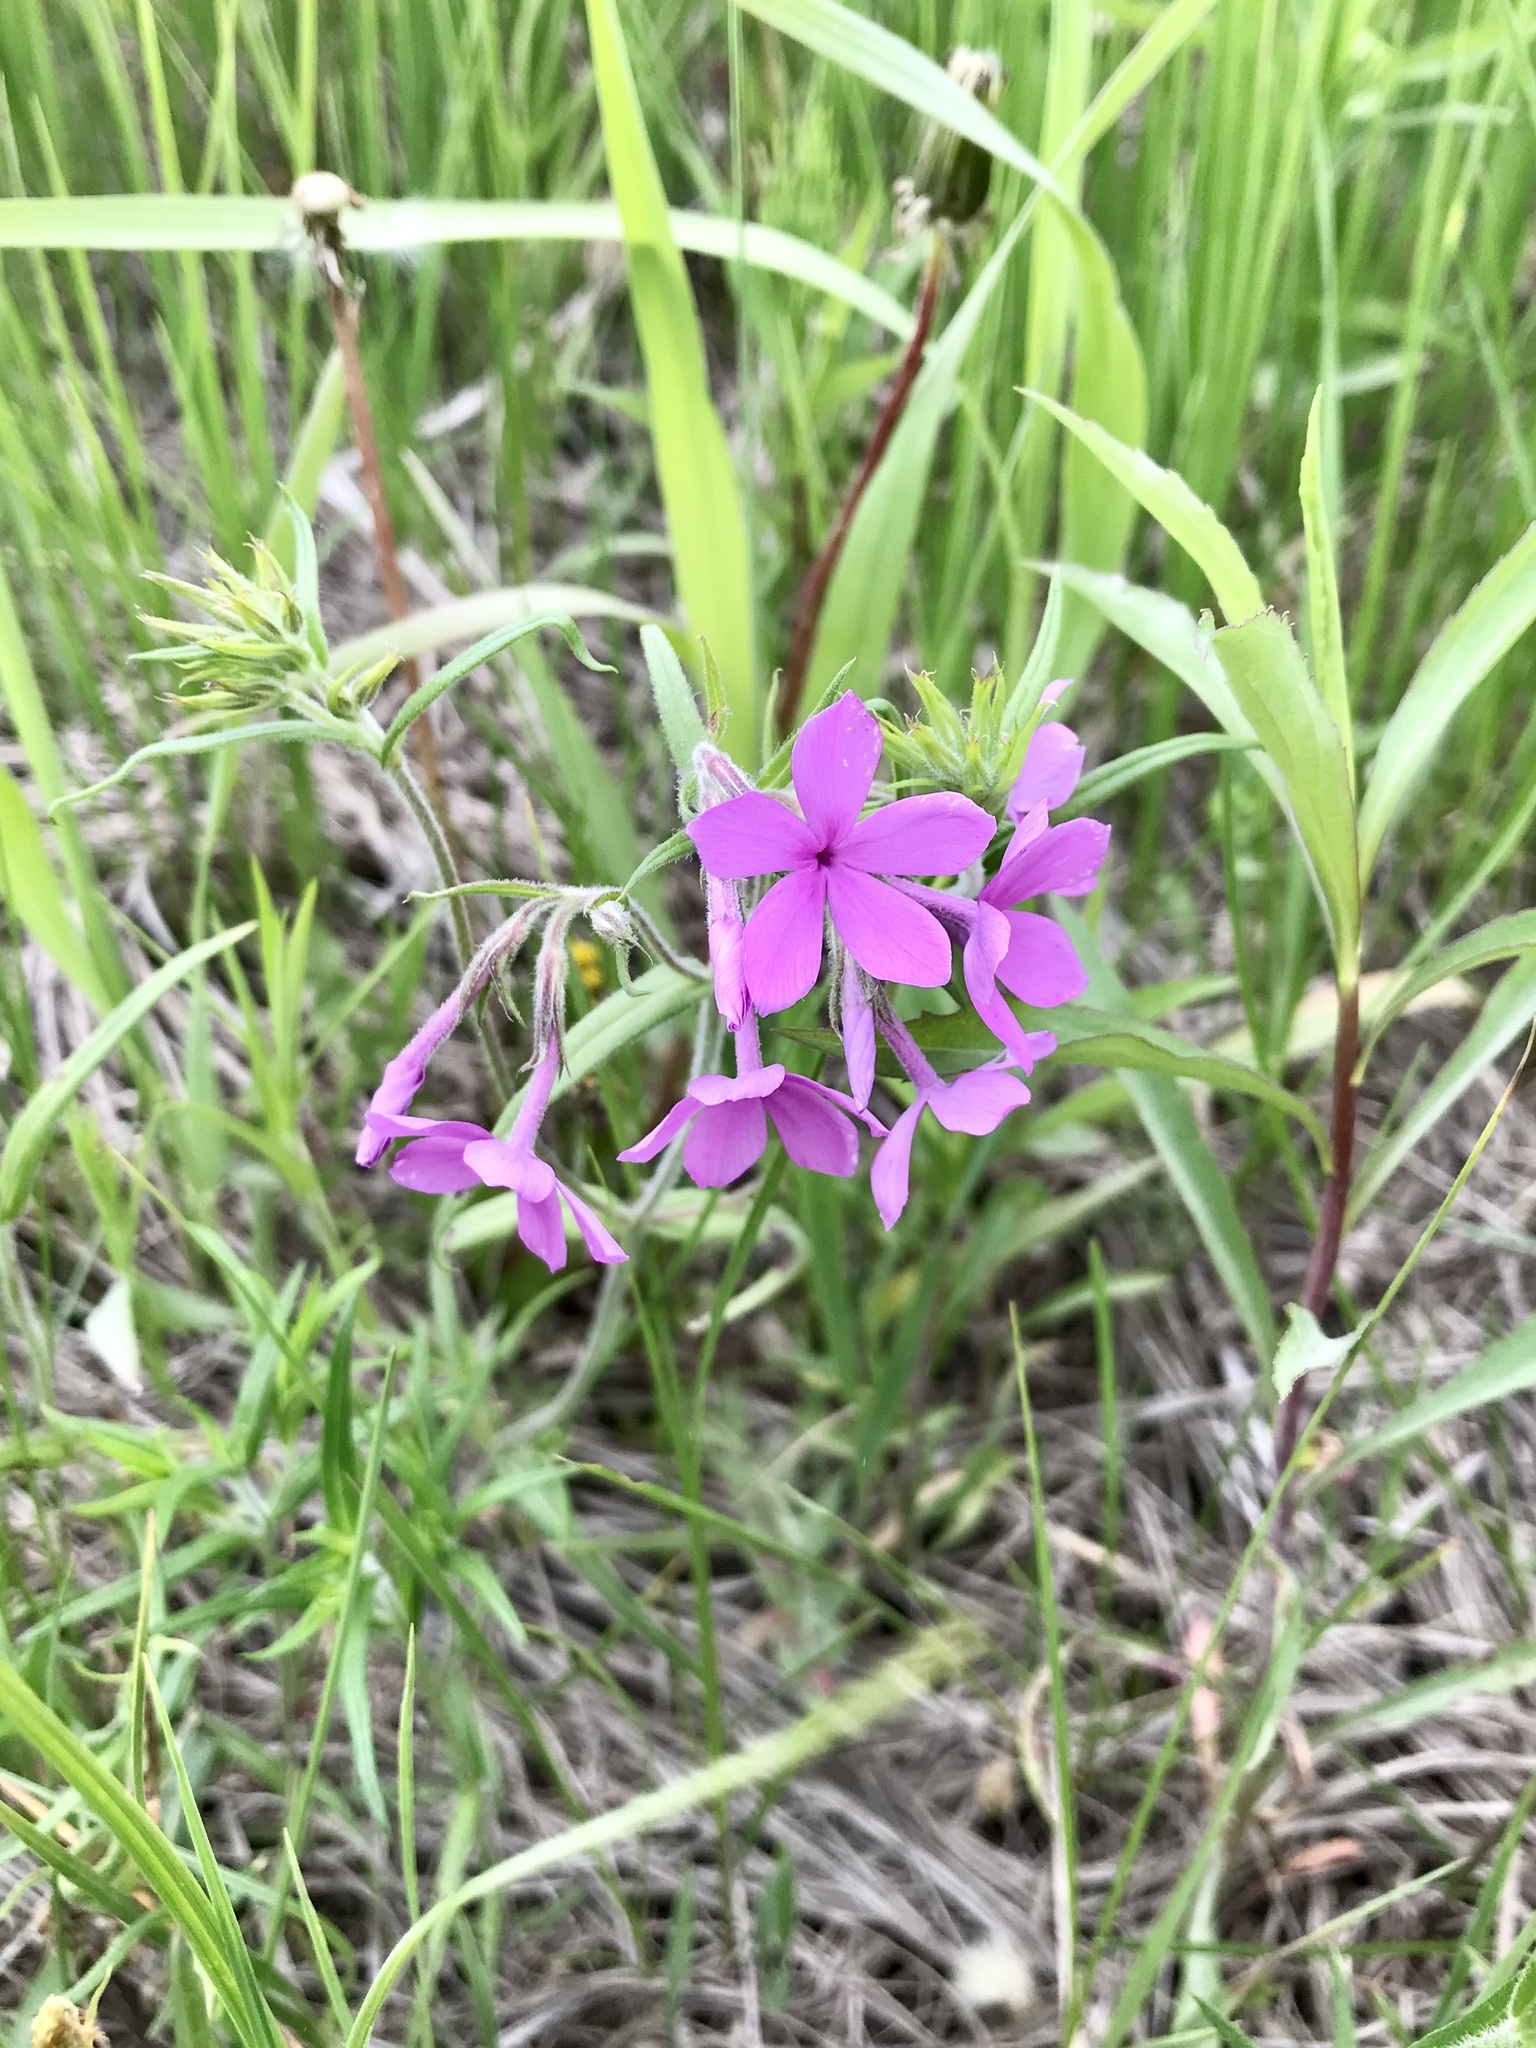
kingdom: Plantae
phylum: Tracheophyta
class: Magnoliopsida
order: Ericales
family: Polemoniaceae
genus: Phlox
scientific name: Phlox pilosa
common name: Prairie phlox
